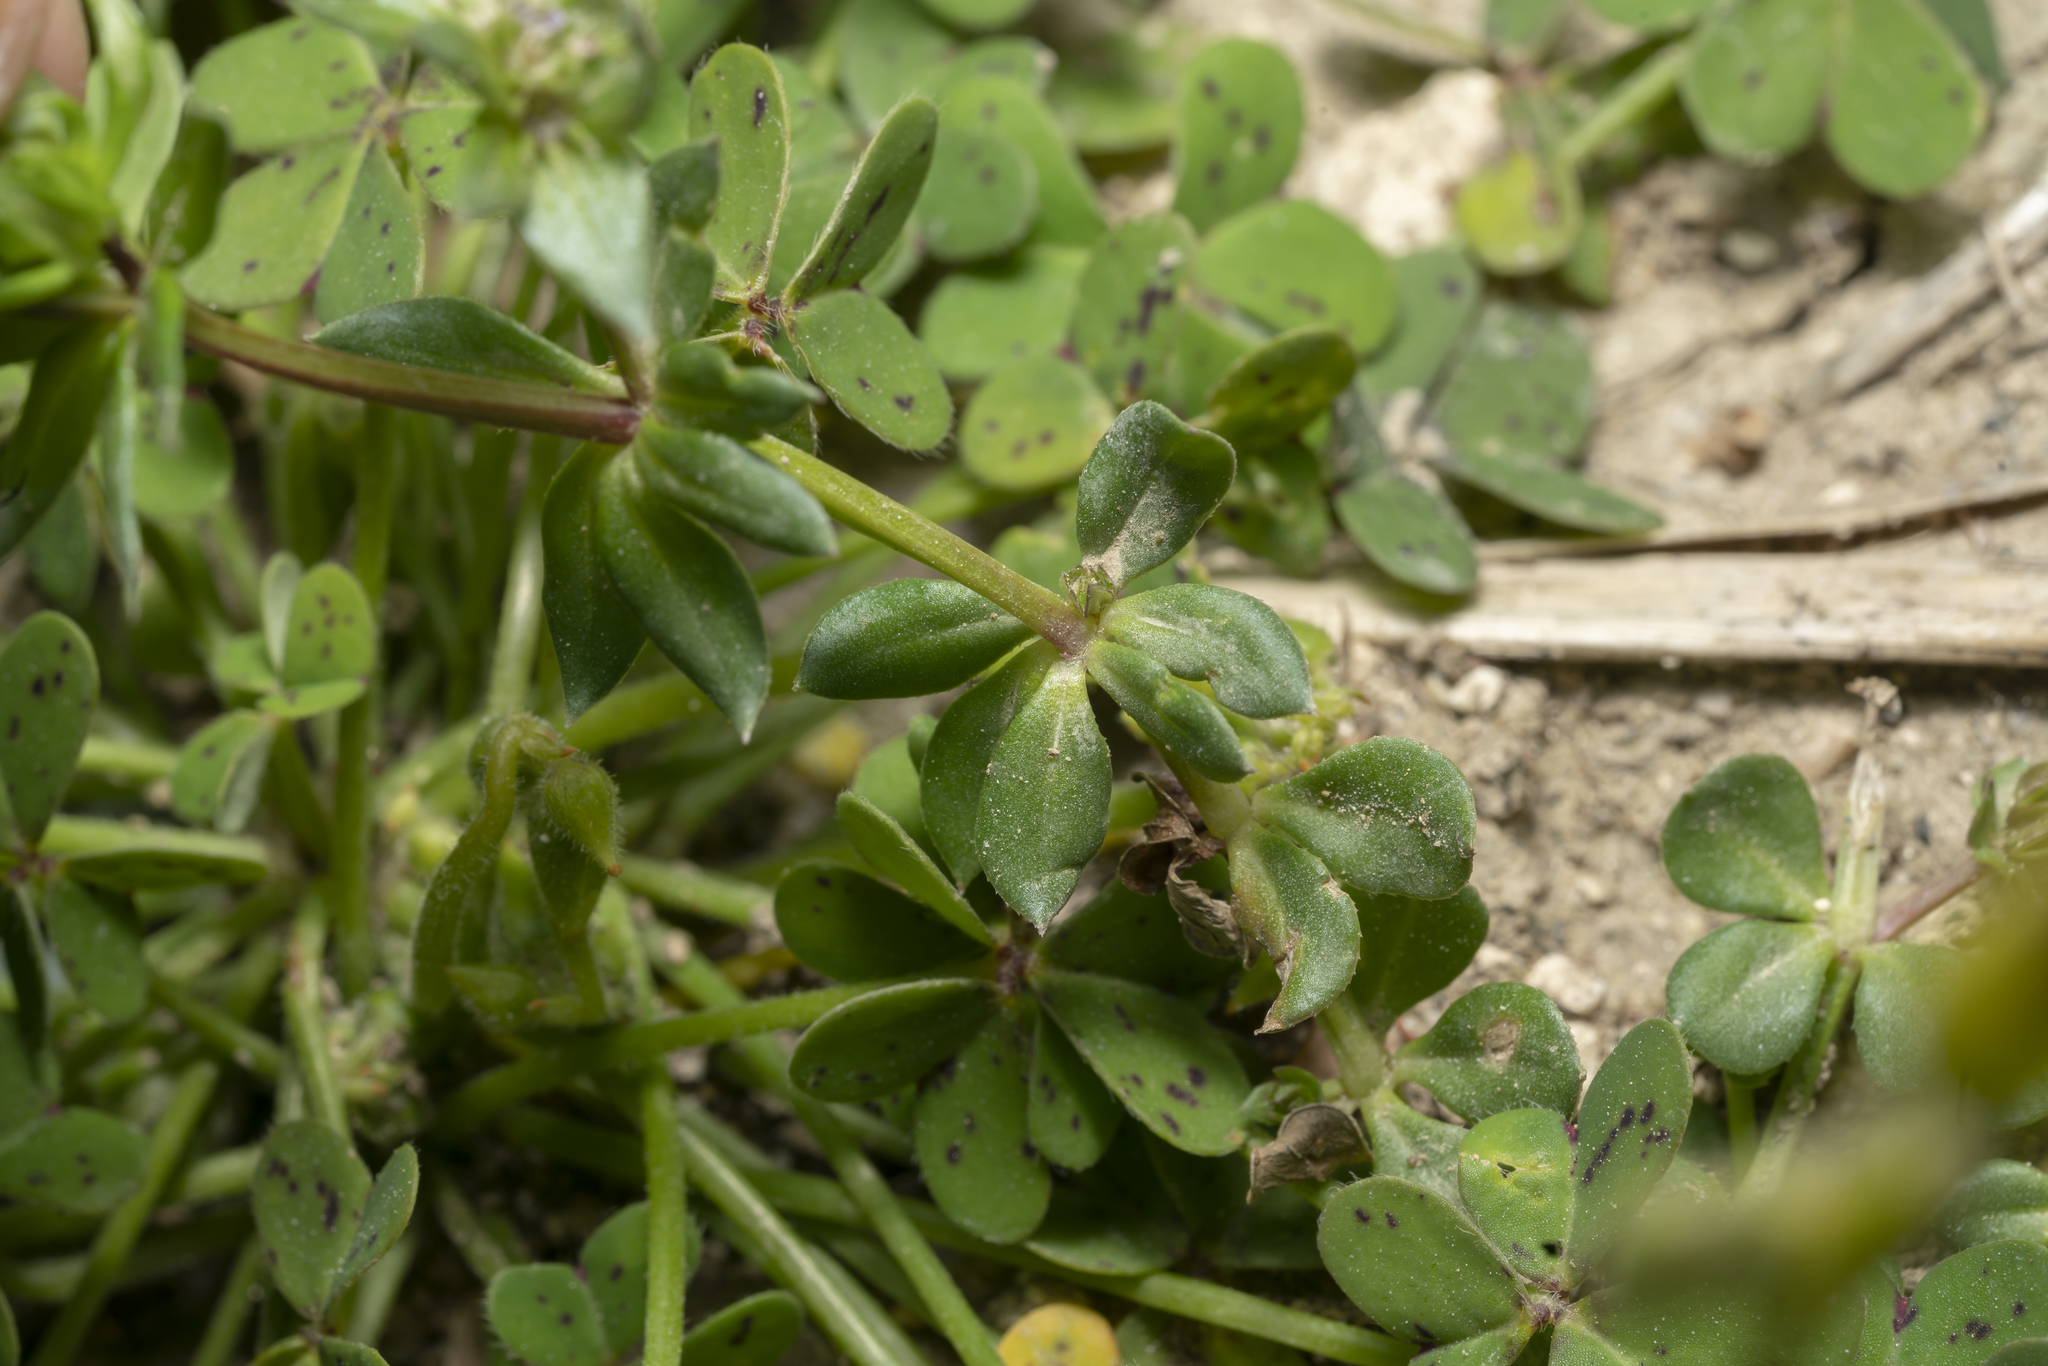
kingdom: Plantae
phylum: Tracheophyta
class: Magnoliopsida
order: Gentianales
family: Rubiaceae
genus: Sherardia
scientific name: Sherardia arvensis
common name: Field madder
